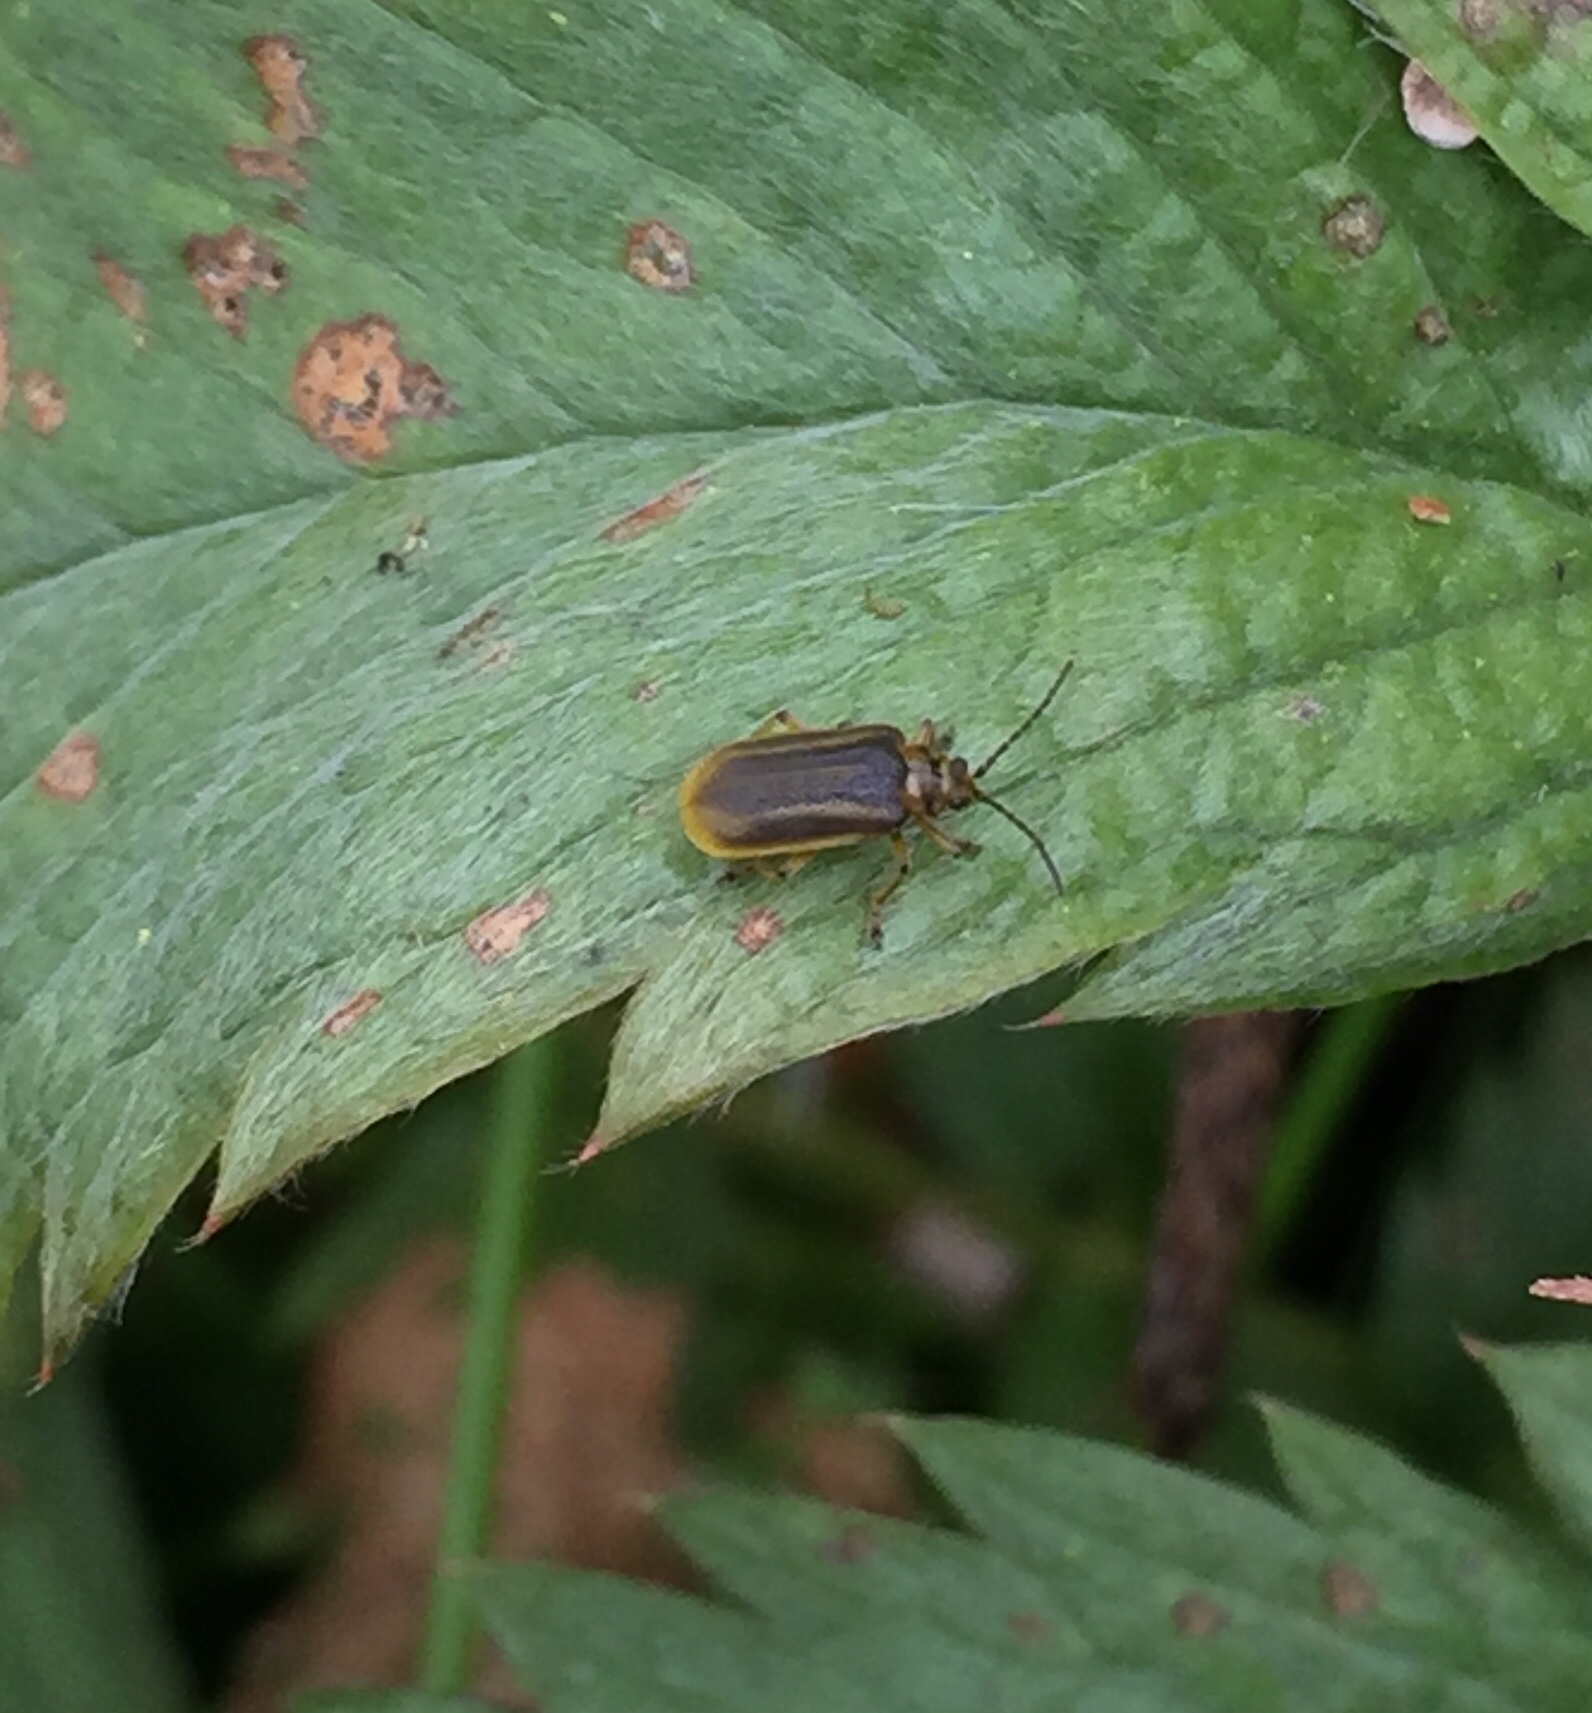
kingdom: Animalia
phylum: Arthropoda
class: Insecta
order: Coleoptera
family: Chrysomelidae
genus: Galerucella
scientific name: Galerucella nymphaeae
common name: Leaf beetle
